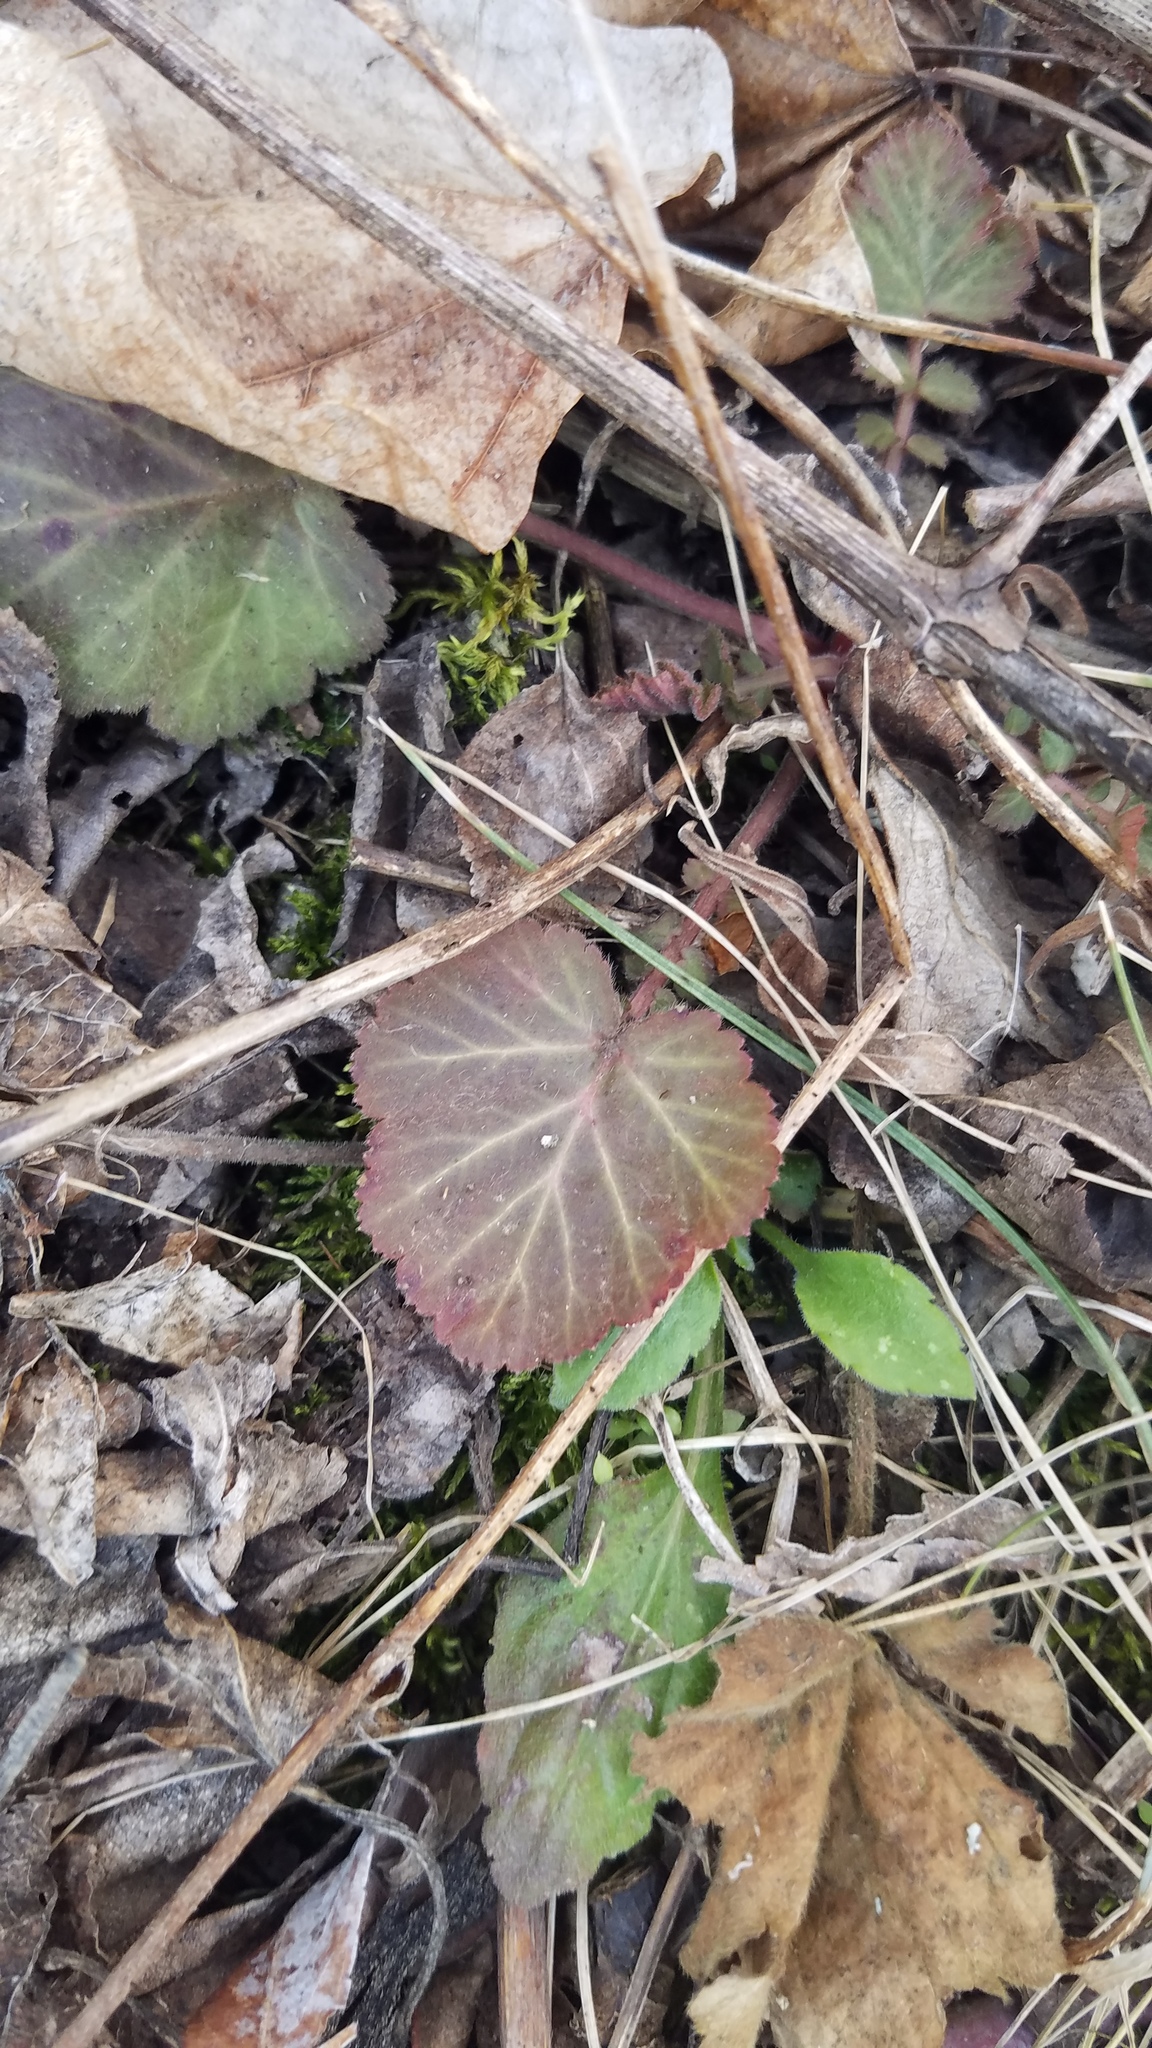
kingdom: Plantae
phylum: Tracheophyta
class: Magnoliopsida
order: Rosales
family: Rosaceae
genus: Geum
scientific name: Geum canadense
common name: White avens
